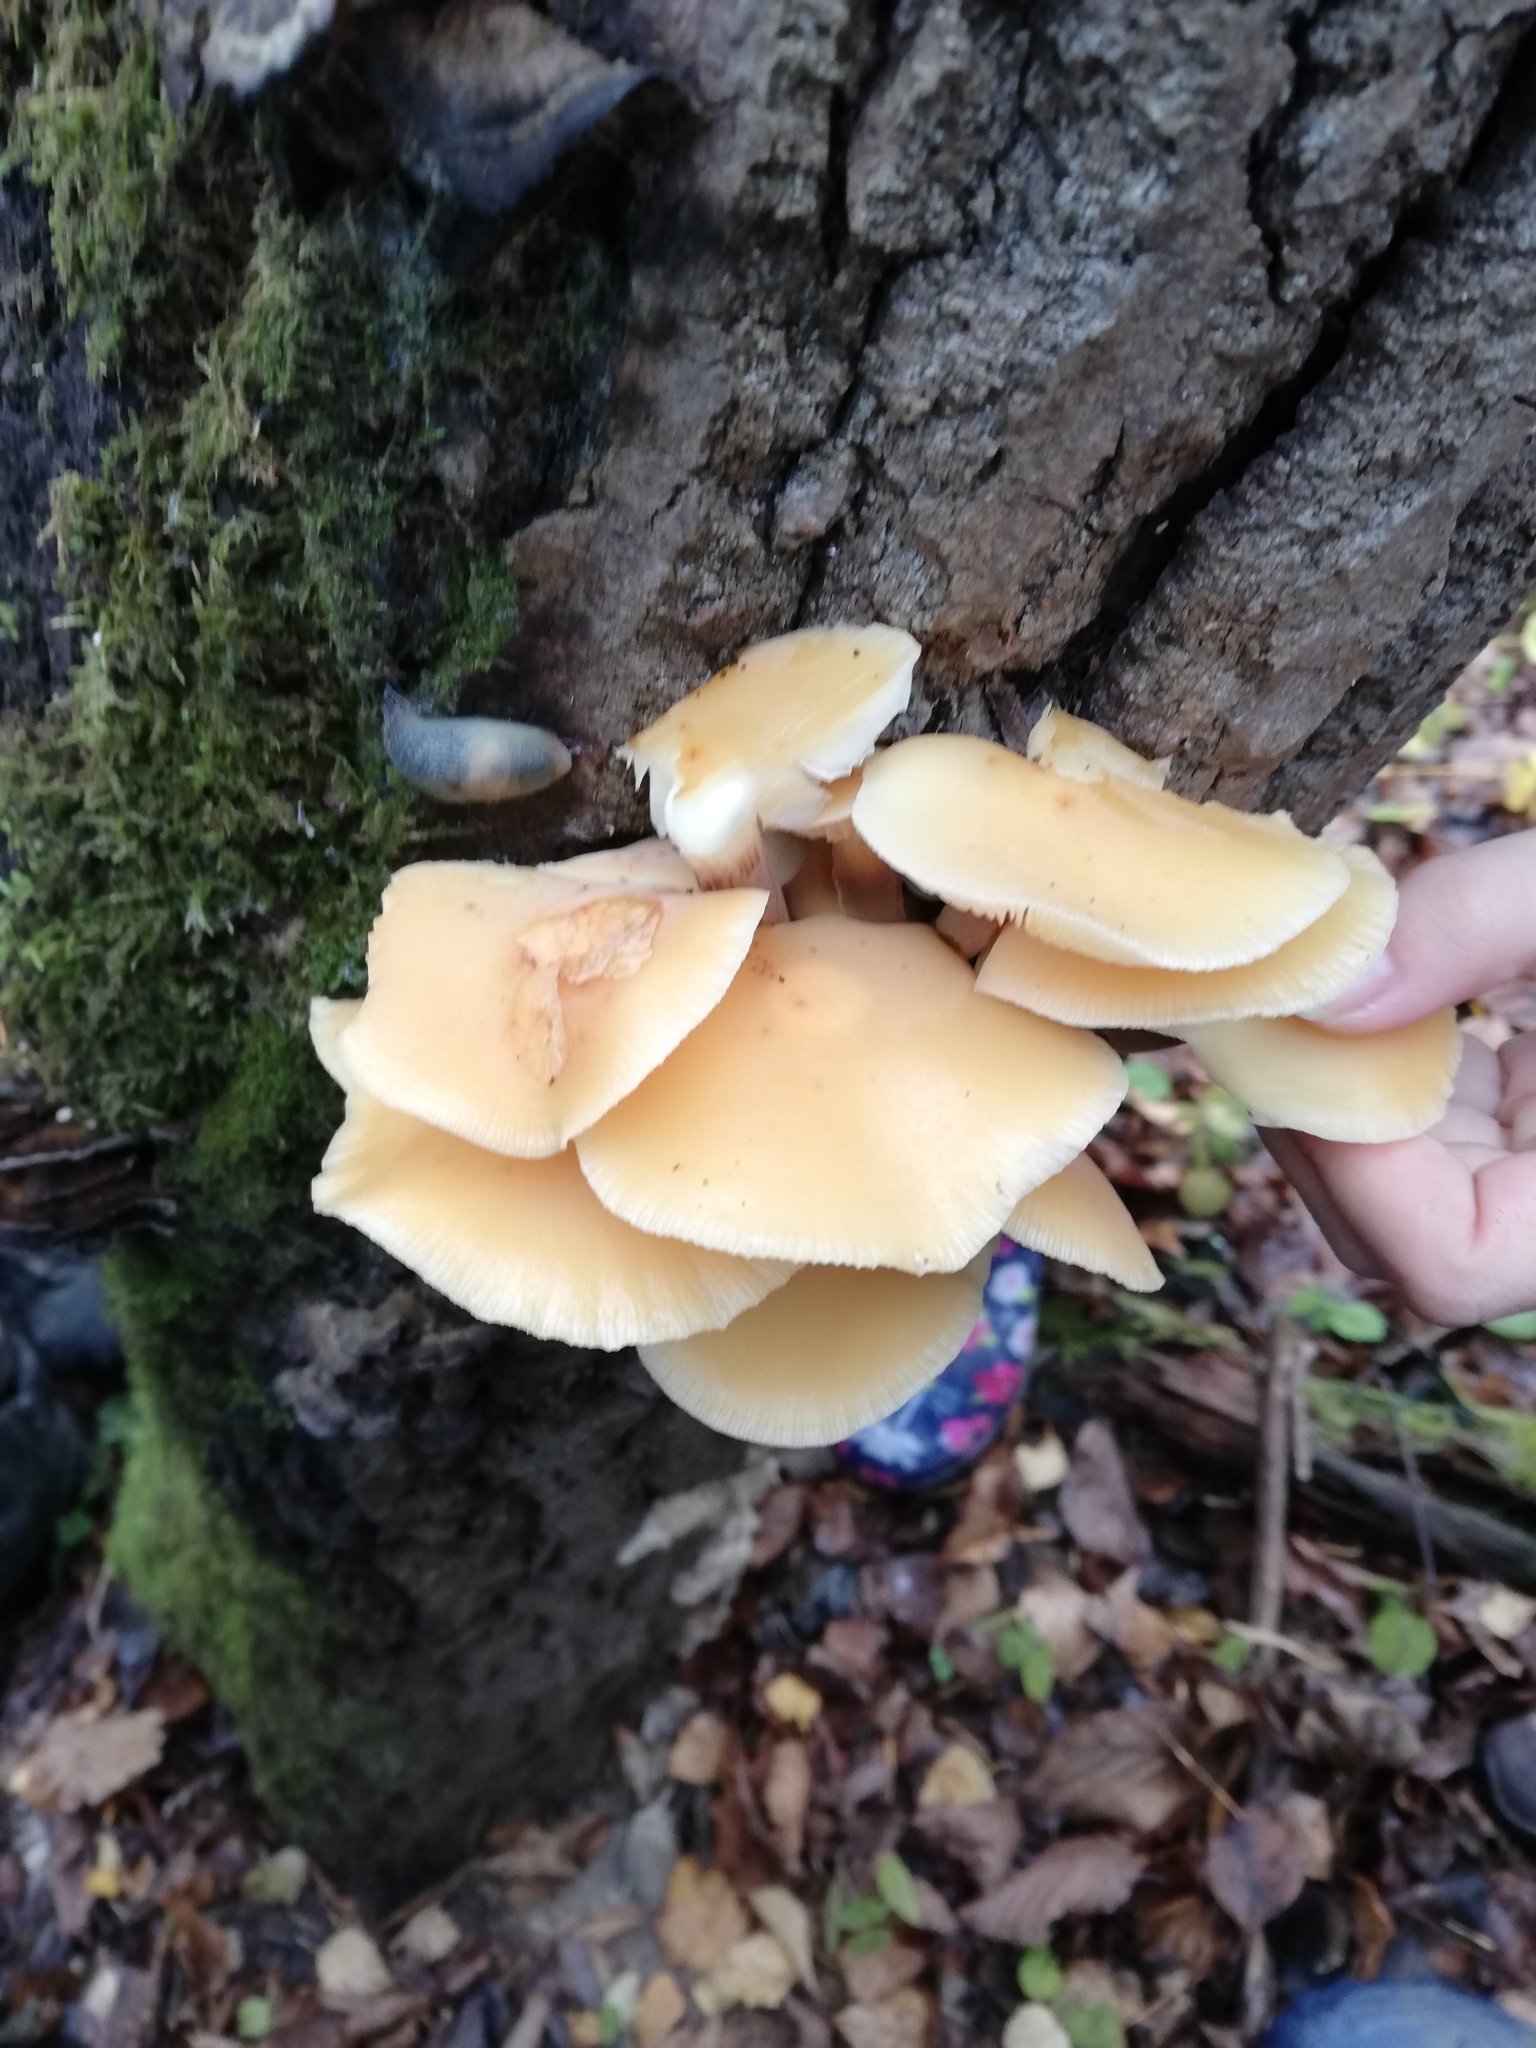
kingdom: Fungi
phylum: Basidiomycota
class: Agaricomycetes
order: Agaricales
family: Physalacriaceae
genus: Flammulina
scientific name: Flammulina
